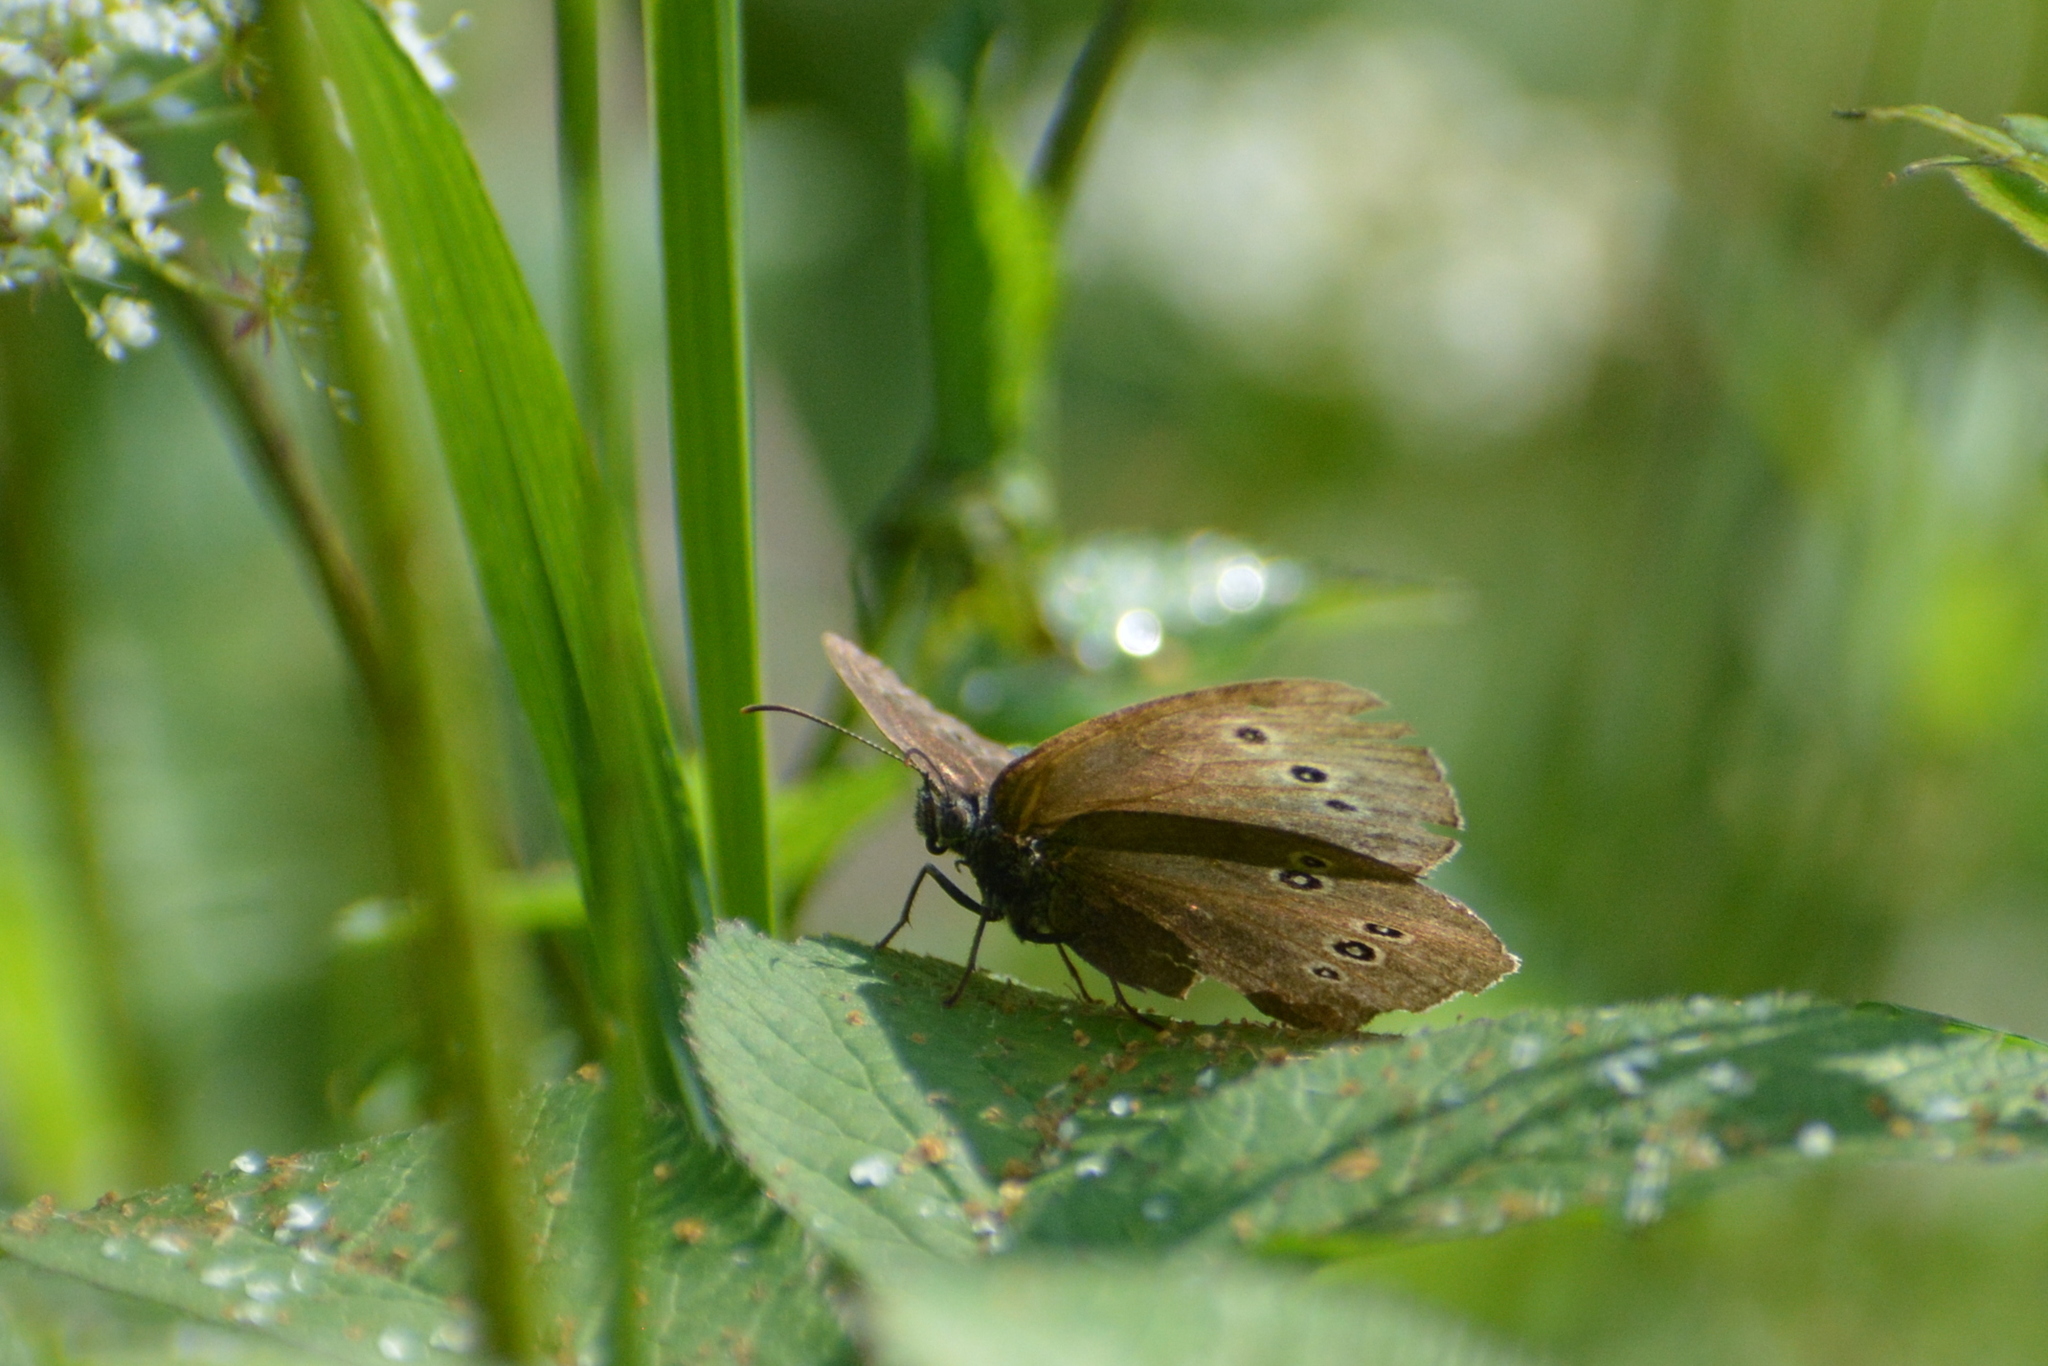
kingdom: Animalia
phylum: Arthropoda
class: Insecta
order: Lepidoptera
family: Nymphalidae
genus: Aphantopus
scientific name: Aphantopus hyperantus
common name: Ringlet
